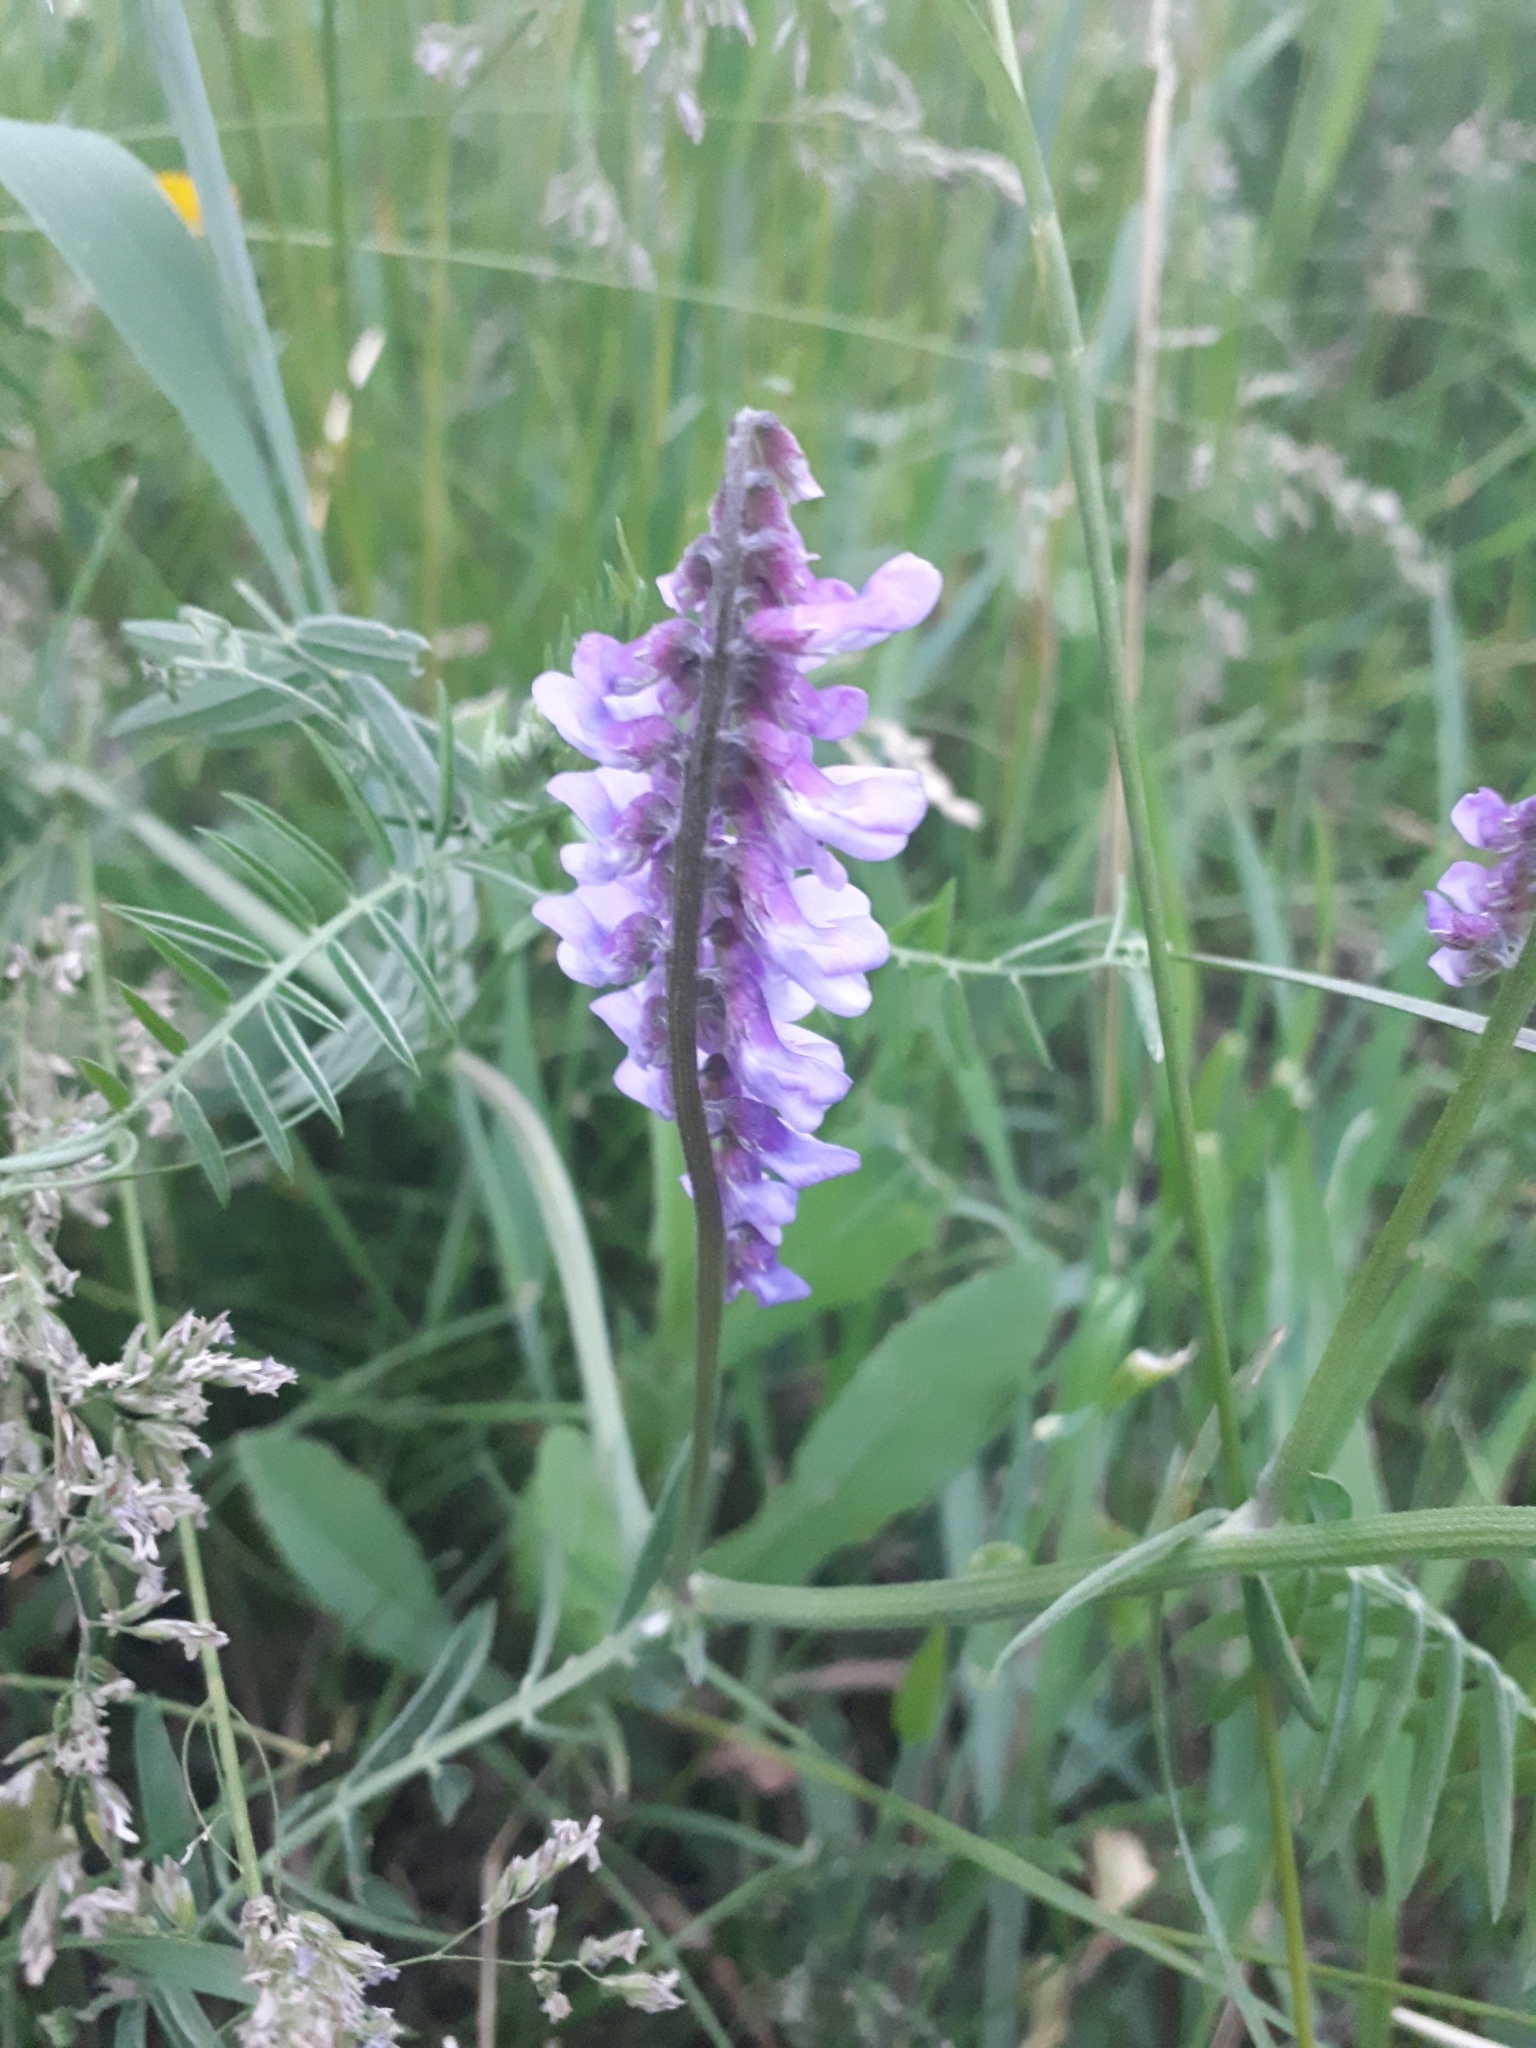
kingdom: Plantae
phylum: Tracheophyta
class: Magnoliopsida
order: Fabales
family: Fabaceae
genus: Vicia
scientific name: Vicia cracca
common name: Bird vetch
